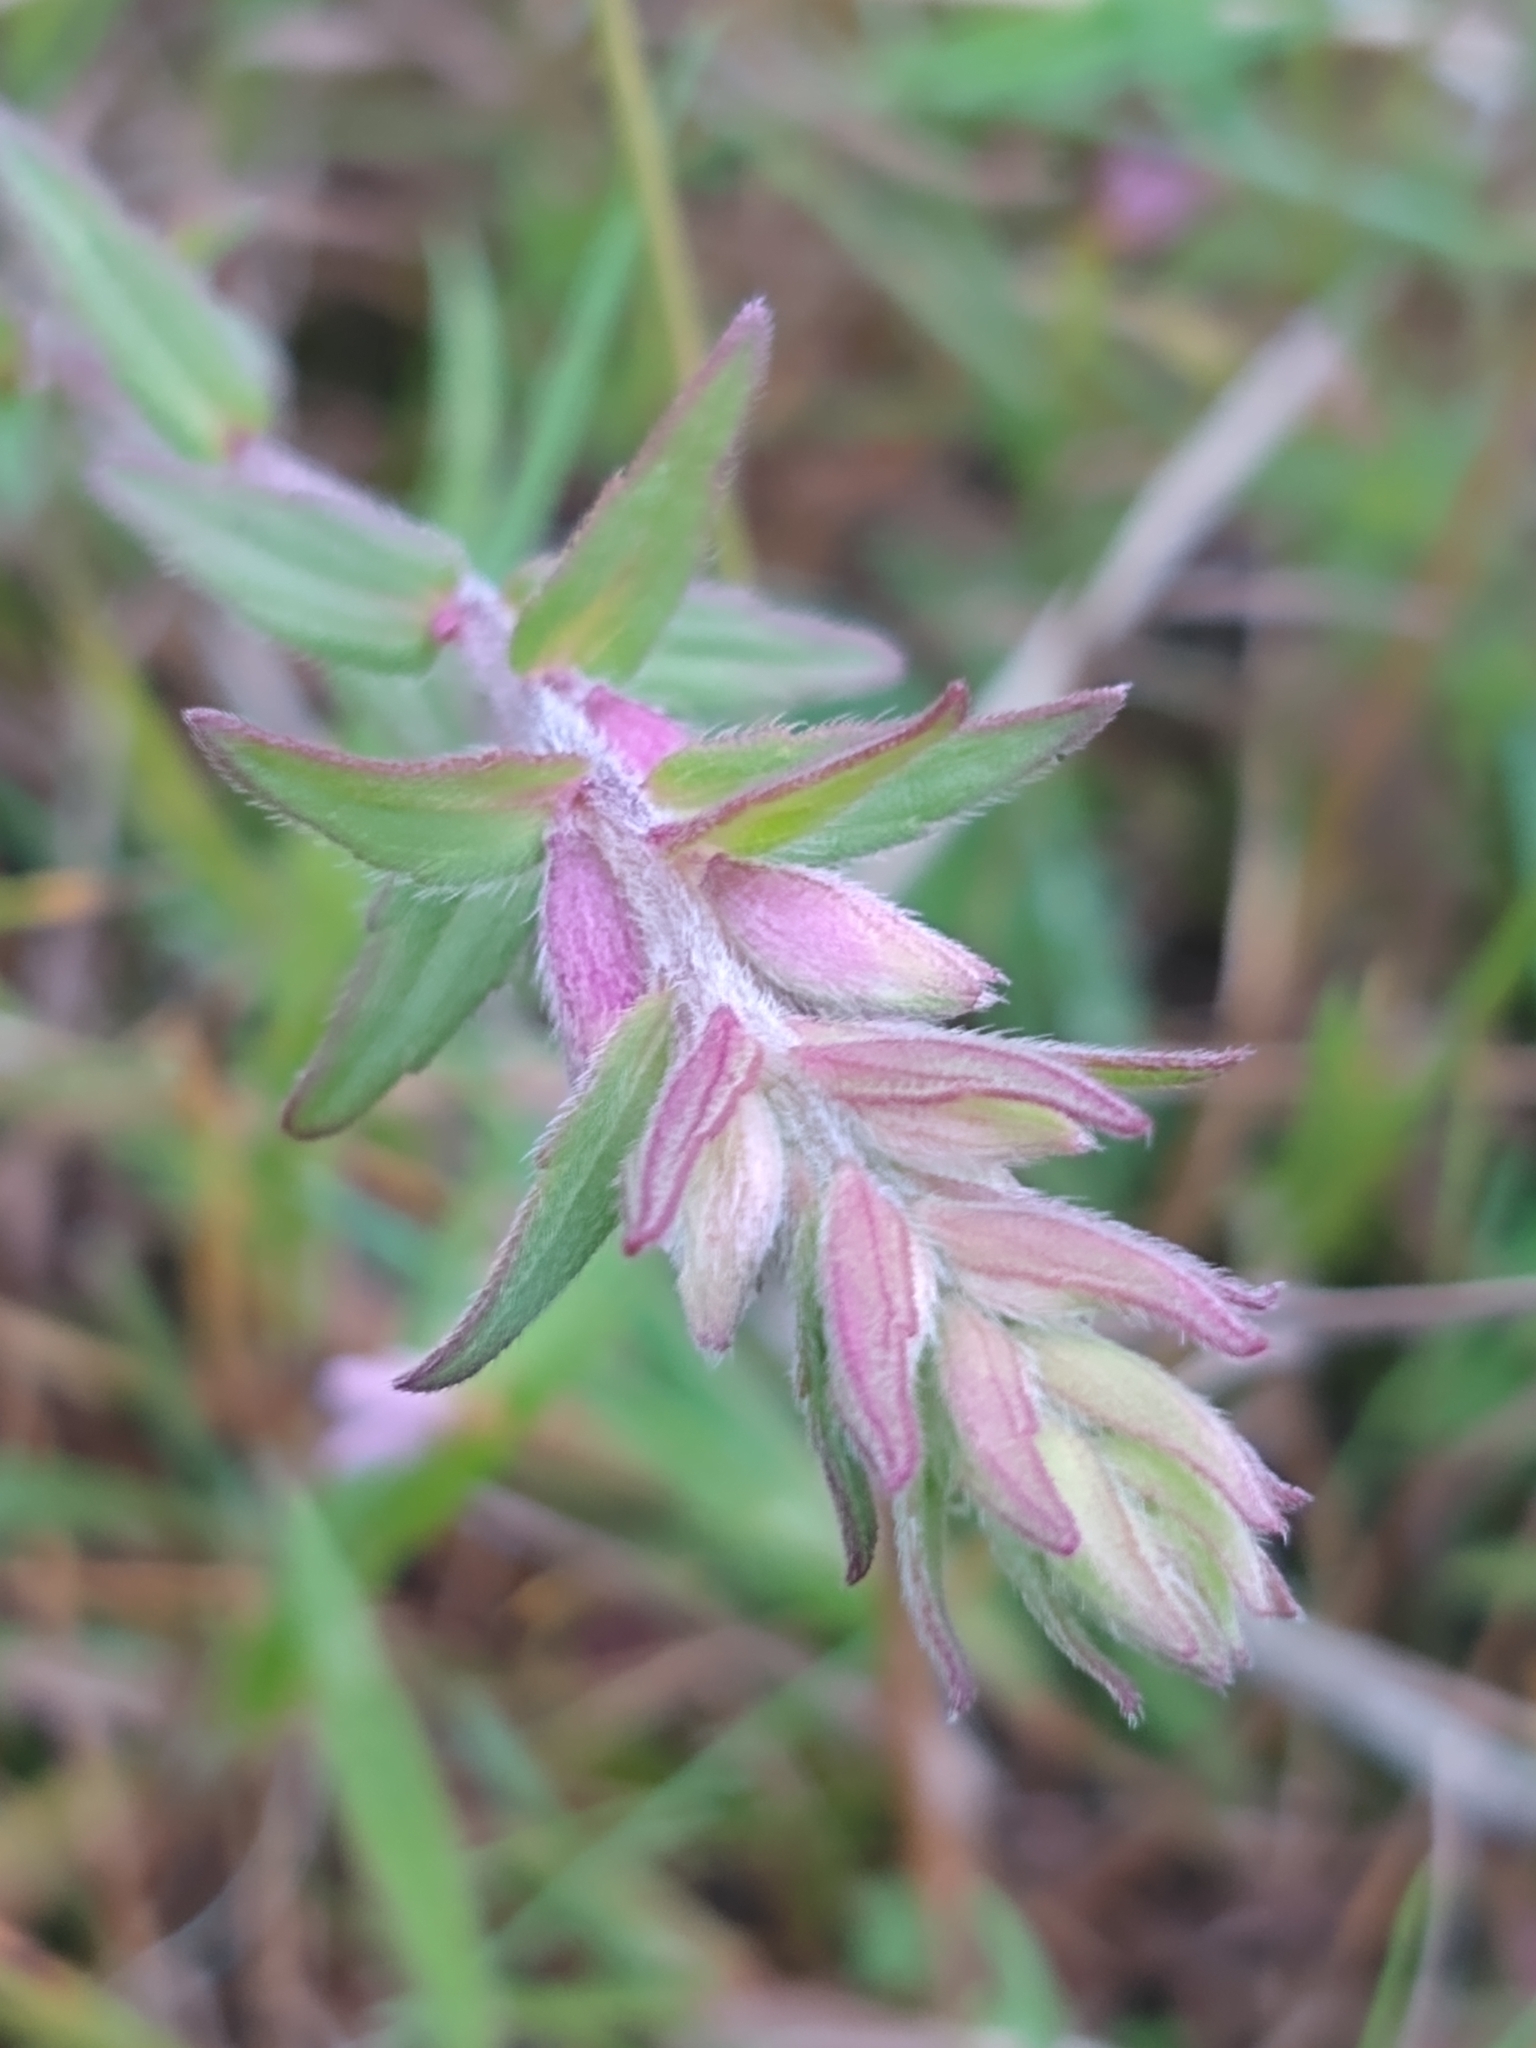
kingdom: Plantae
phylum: Tracheophyta
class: Magnoliopsida
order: Lamiales
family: Orobanchaceae
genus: Odontites
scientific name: Odontites vulgaris
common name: Broomrape
